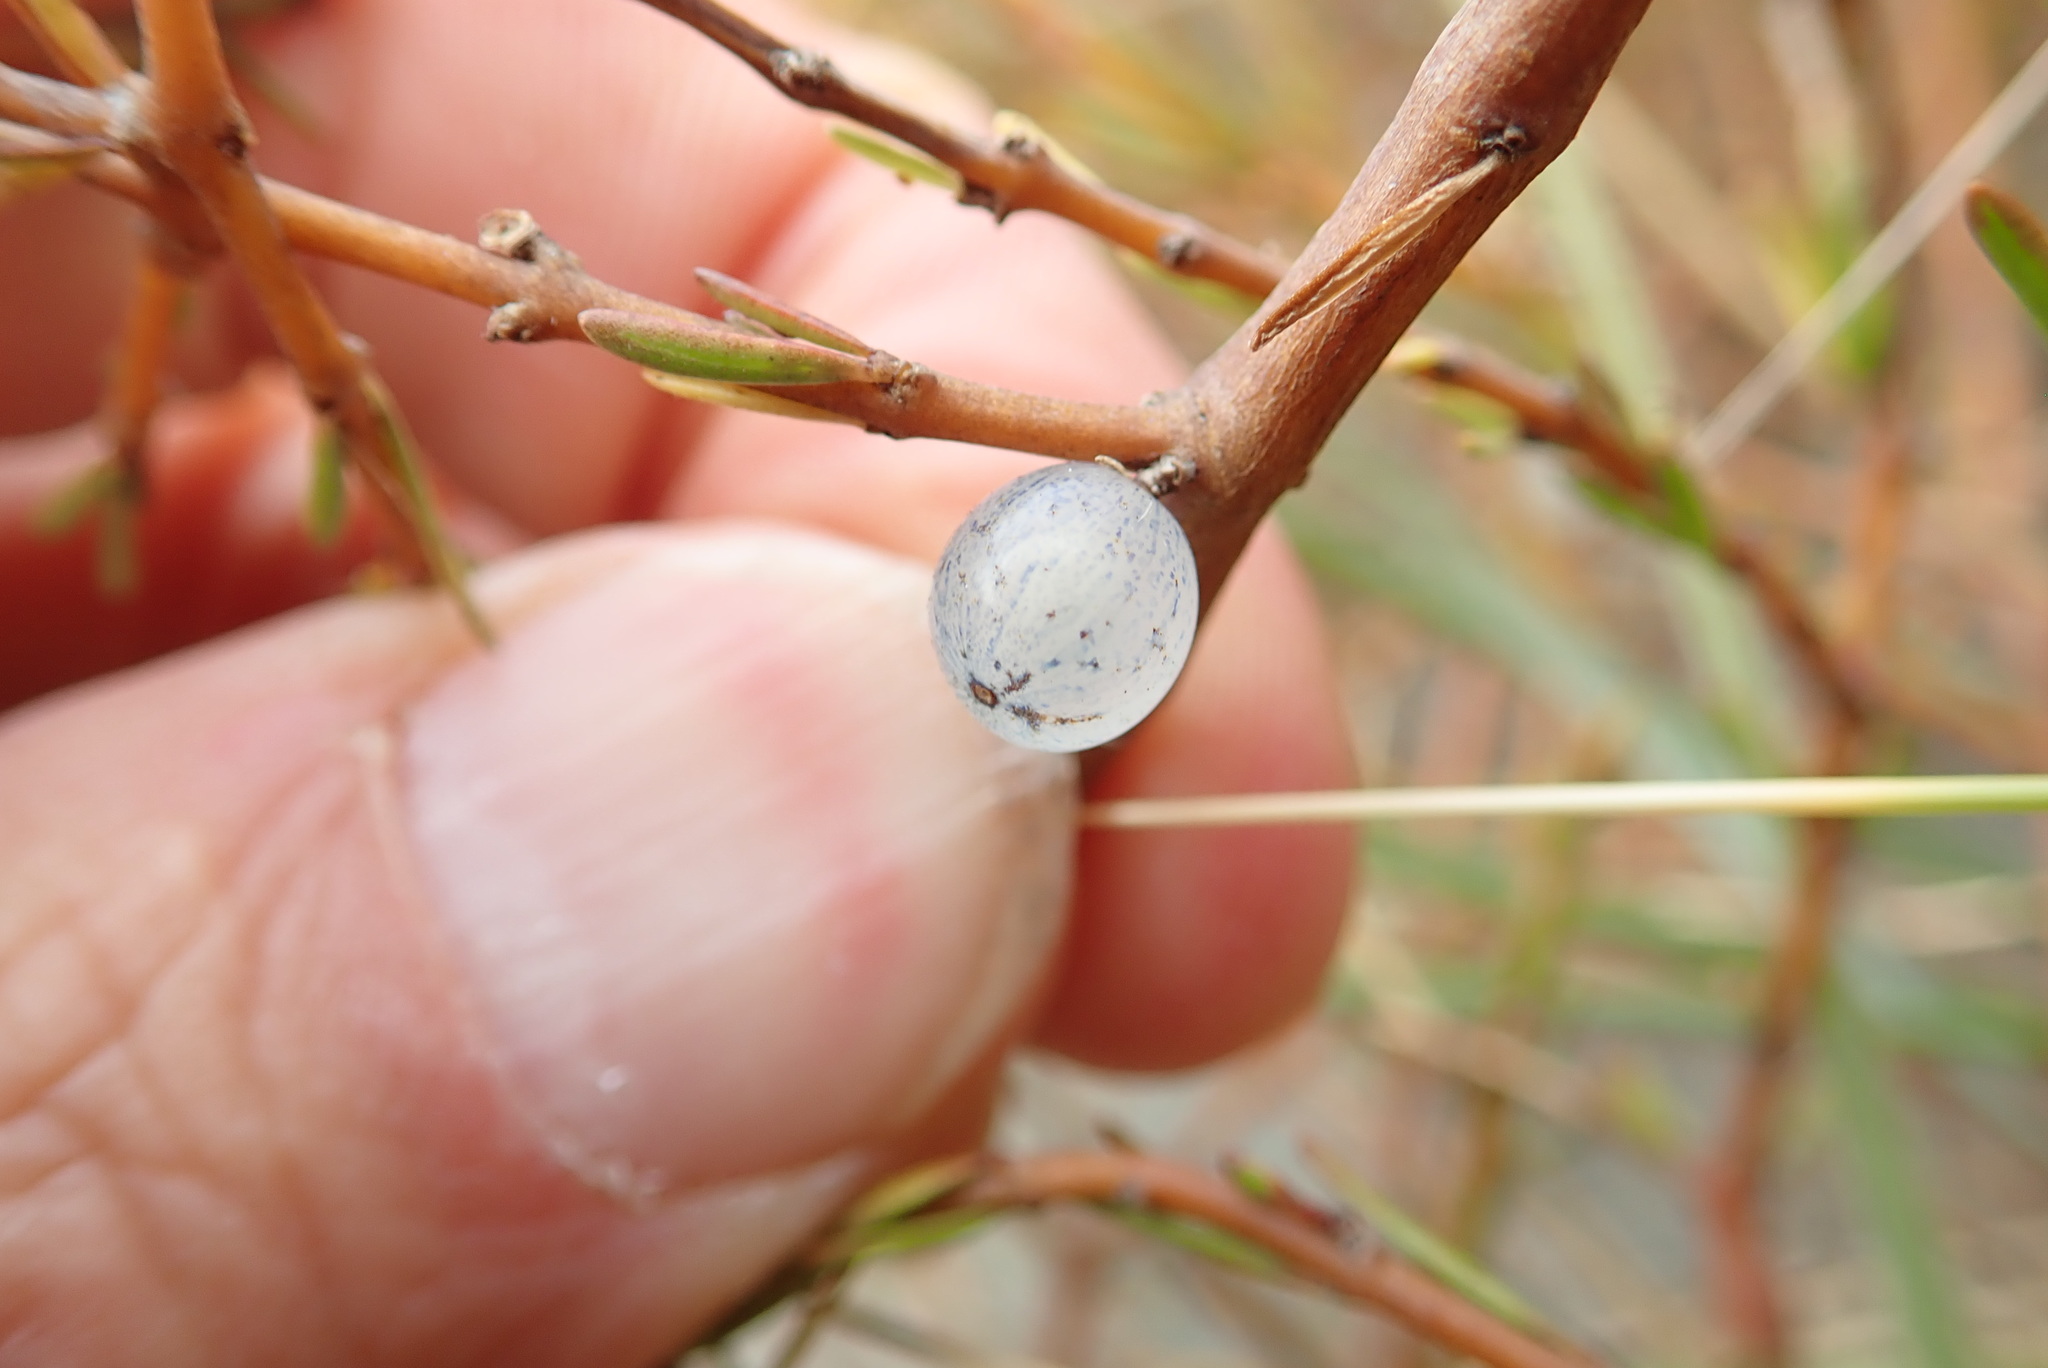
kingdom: Plantae
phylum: Tracheophyta
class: Magnoliopsida
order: Gentianales
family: Rubiaceae
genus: Coprosma
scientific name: Coprosma acerosa
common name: Sand coprosma
